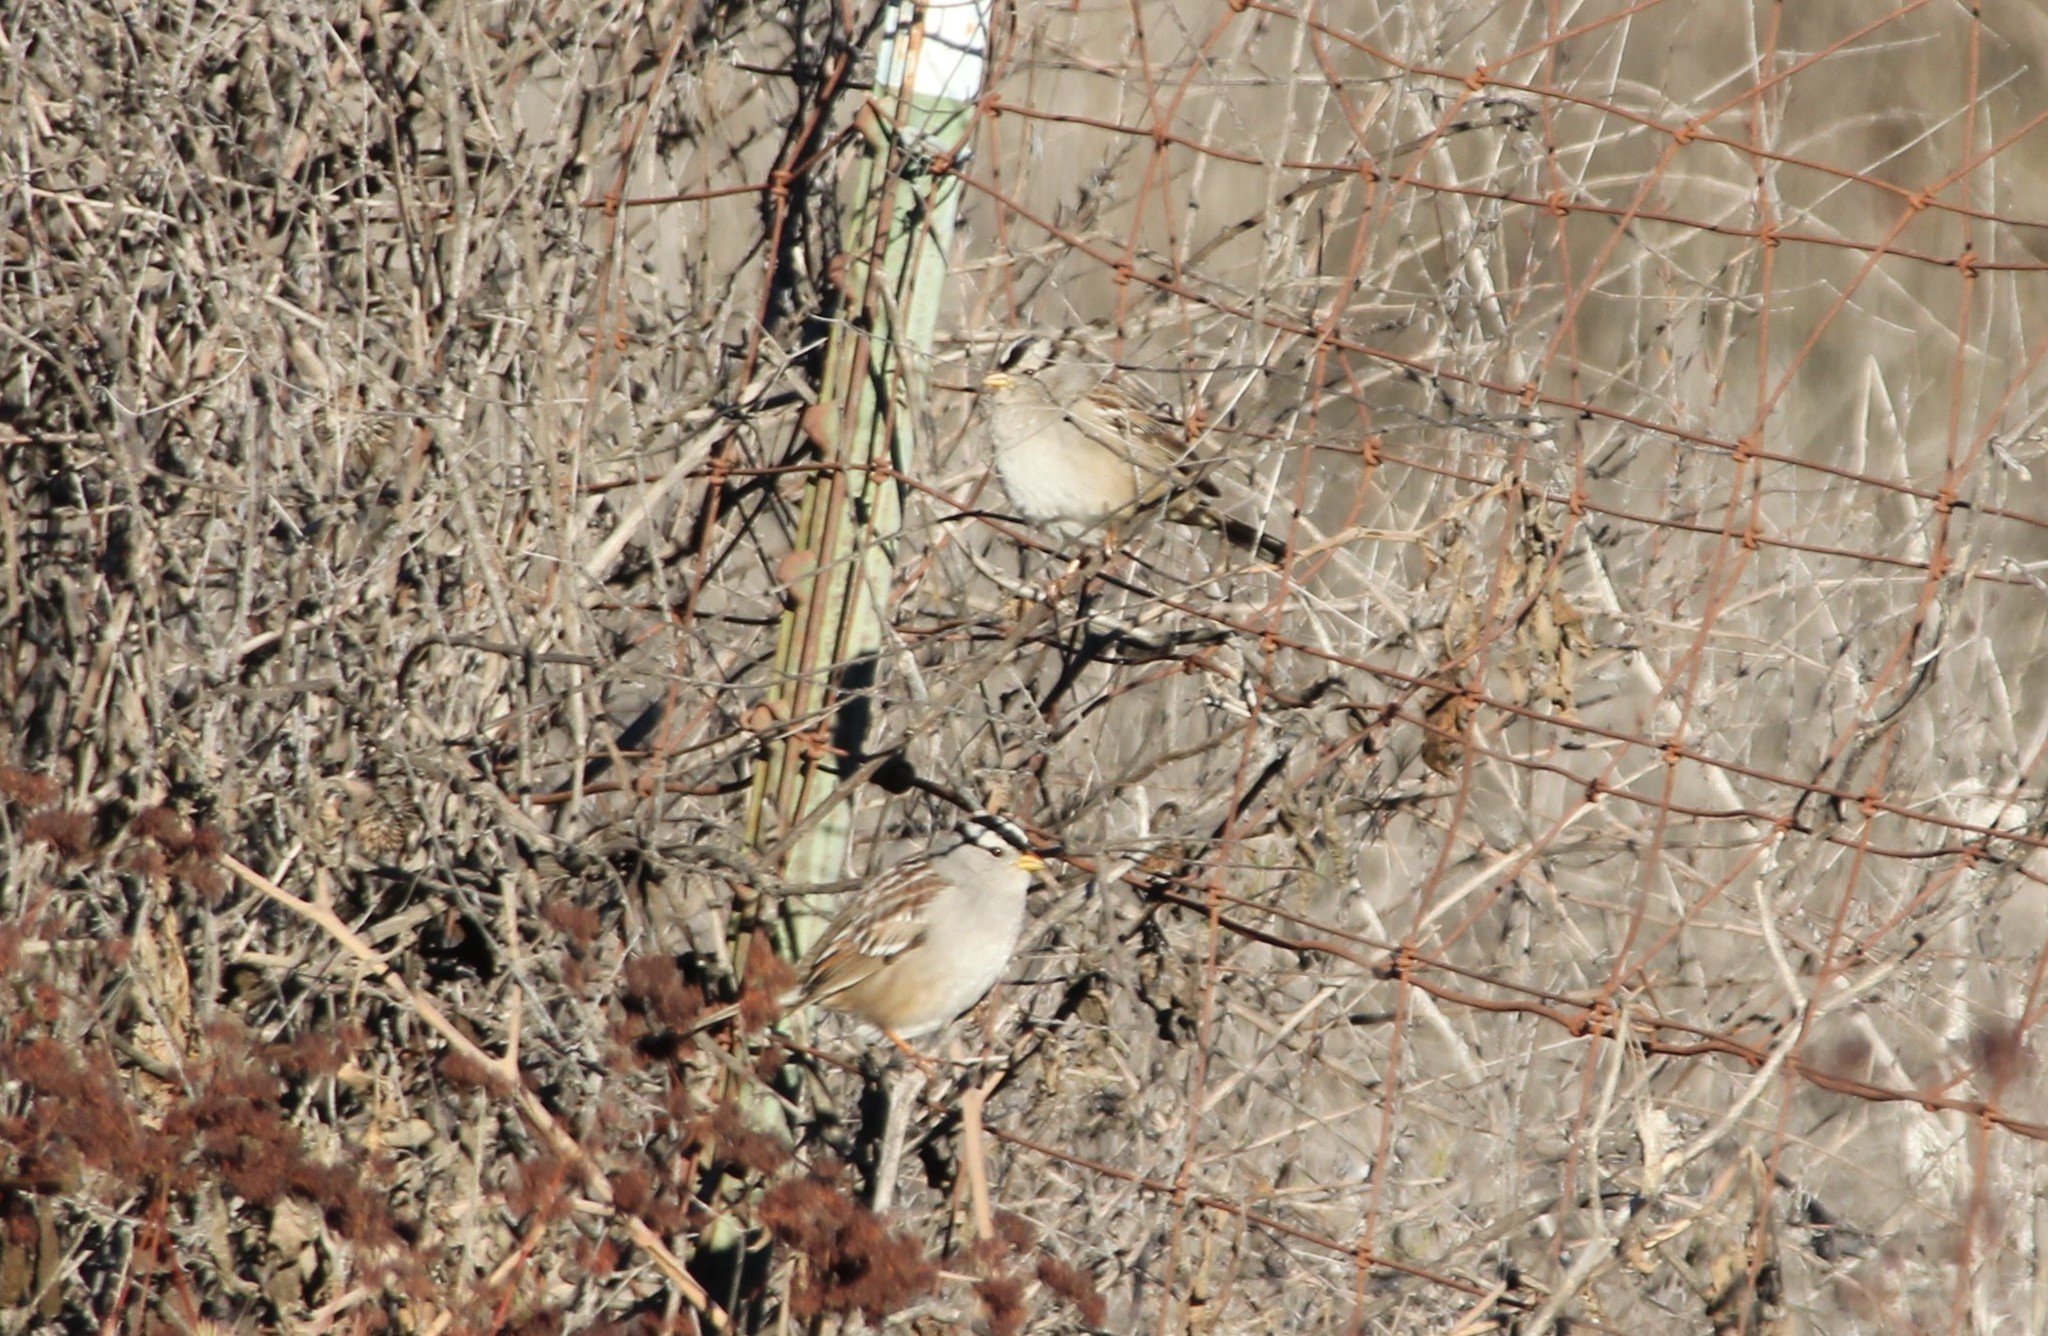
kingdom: Animalia
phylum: Chordata
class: Aves
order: Passeriformes
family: Passerellidae
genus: Zonotrichia
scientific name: Zonotrichia leucophrys
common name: White-crowned sparrow
